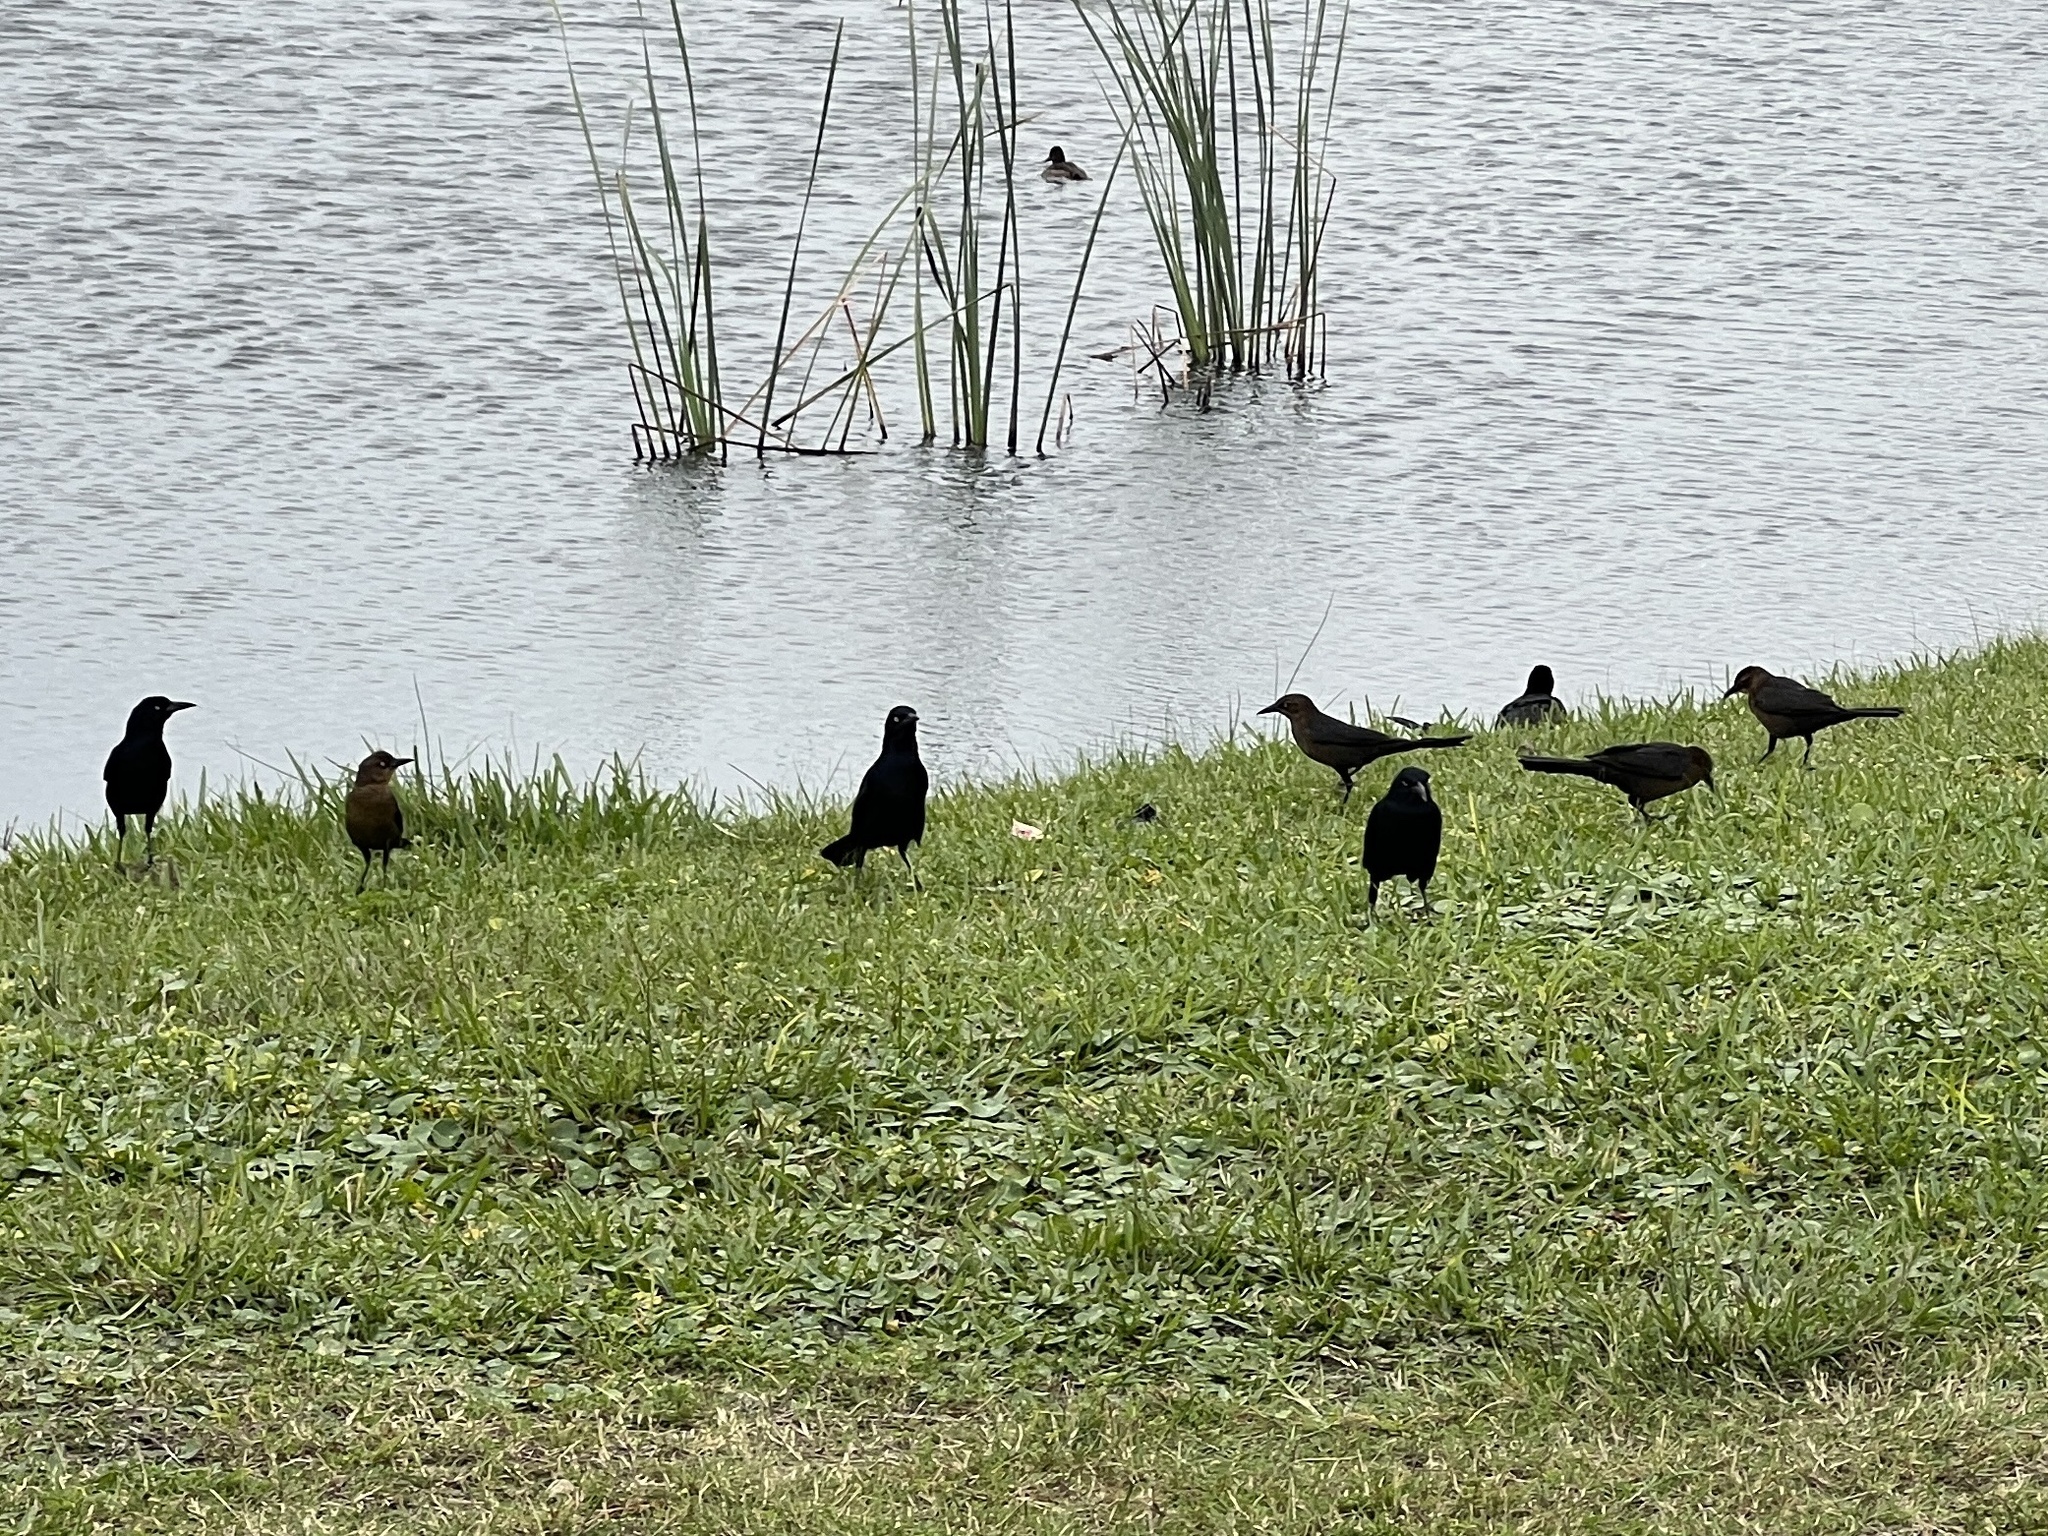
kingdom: Animalia
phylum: Chordata
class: Aves
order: Passeriformes
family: Icteridae
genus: Quiscalus
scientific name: Quiscalus mexicanus
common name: Great-tailed grackle
